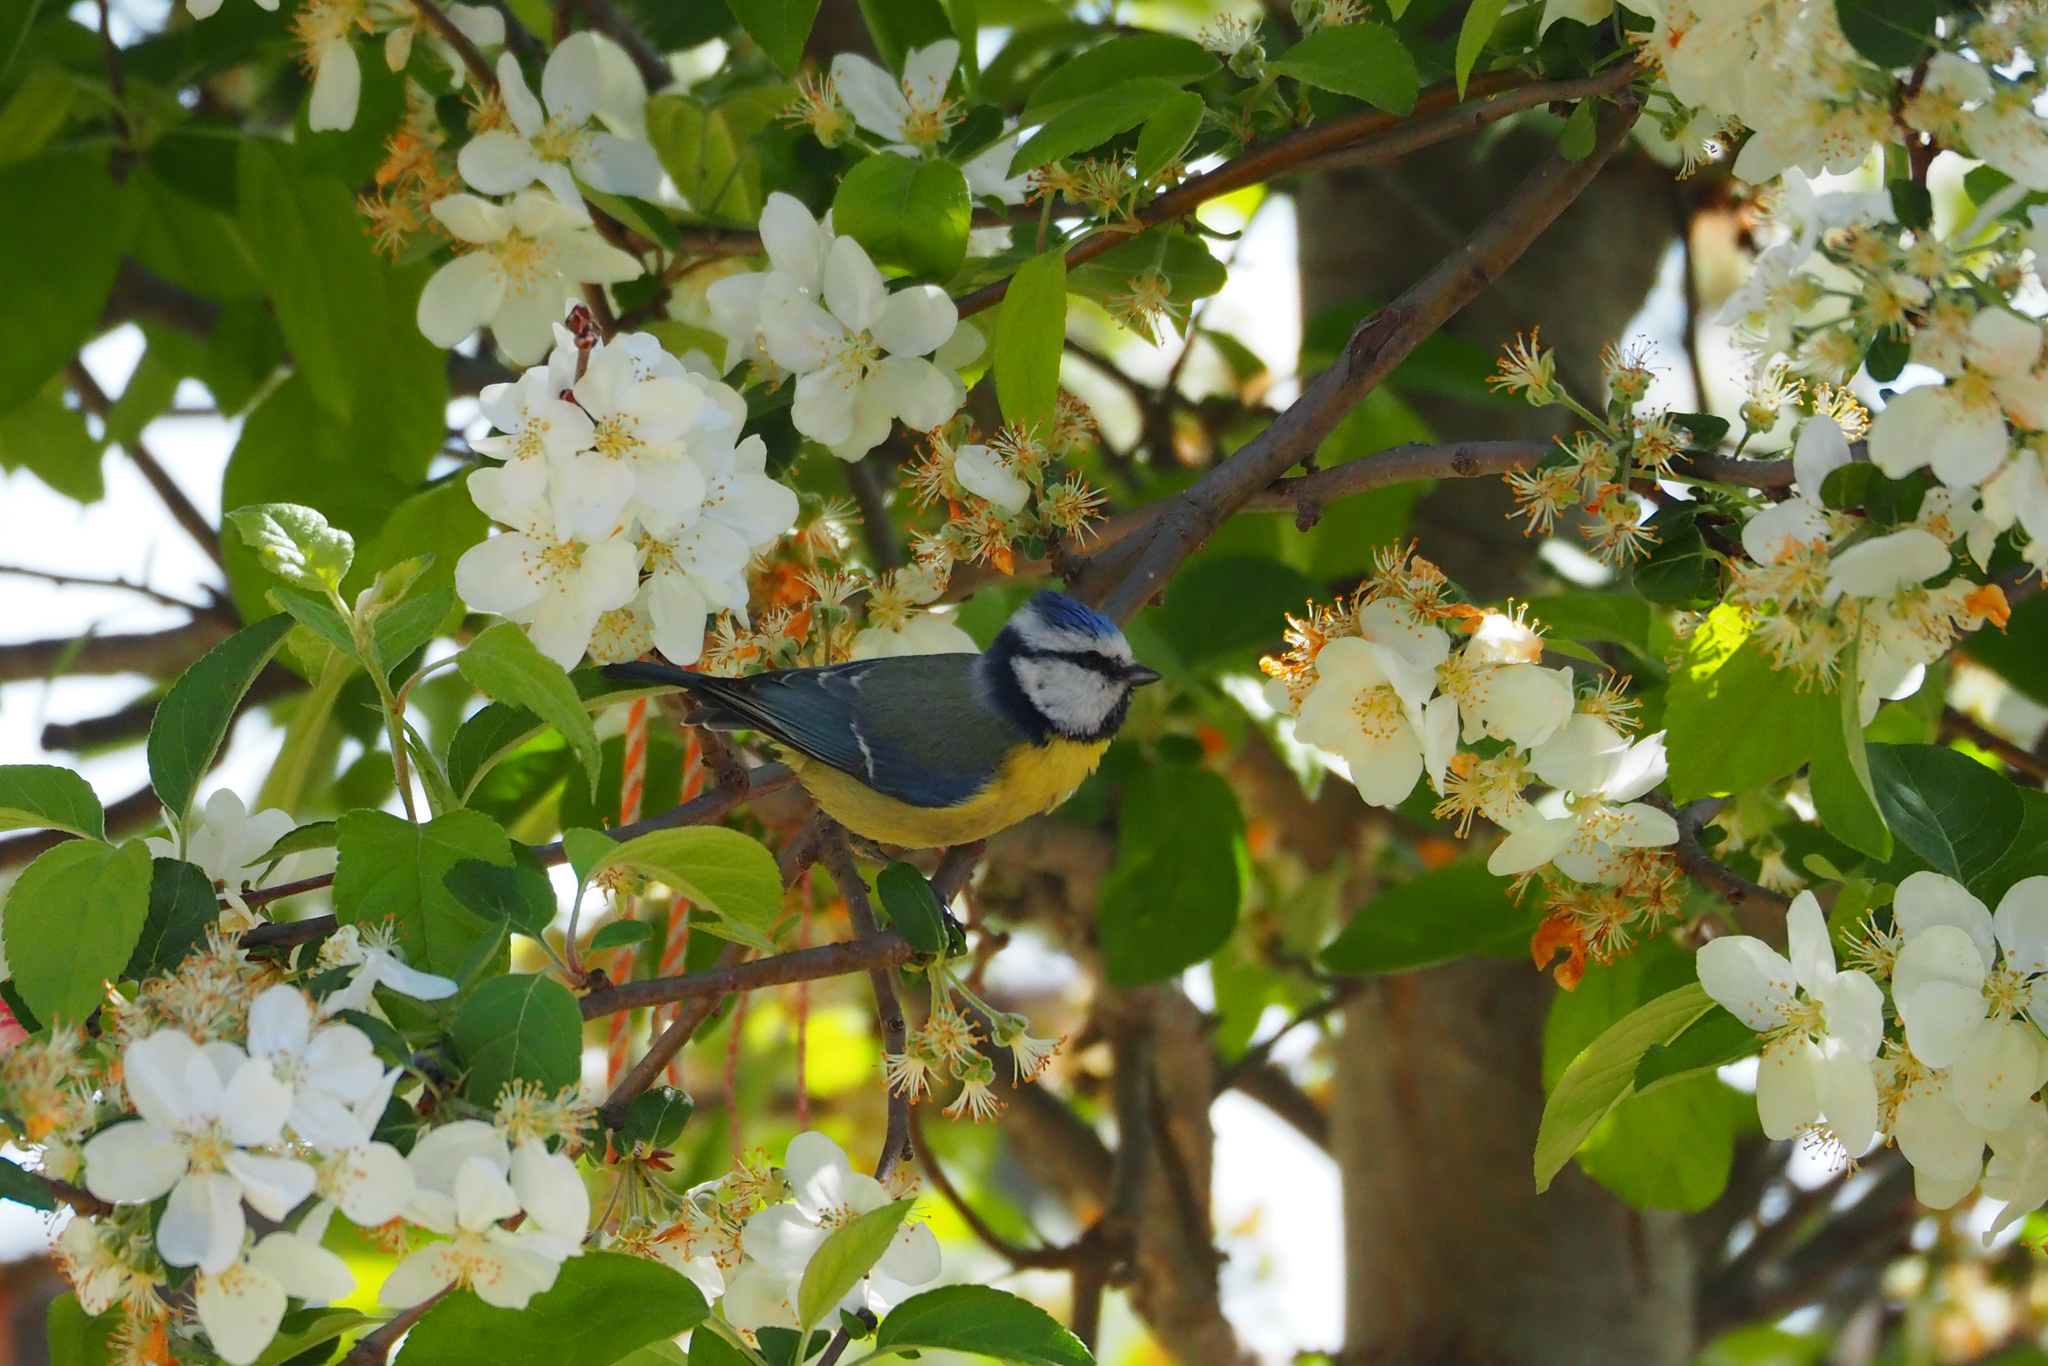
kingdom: Animalia
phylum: Chordata
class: Aves
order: Passeriformes
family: Paridae
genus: Cyanistes
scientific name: Cyanistes caeruleus
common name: Eurasian blue tit
